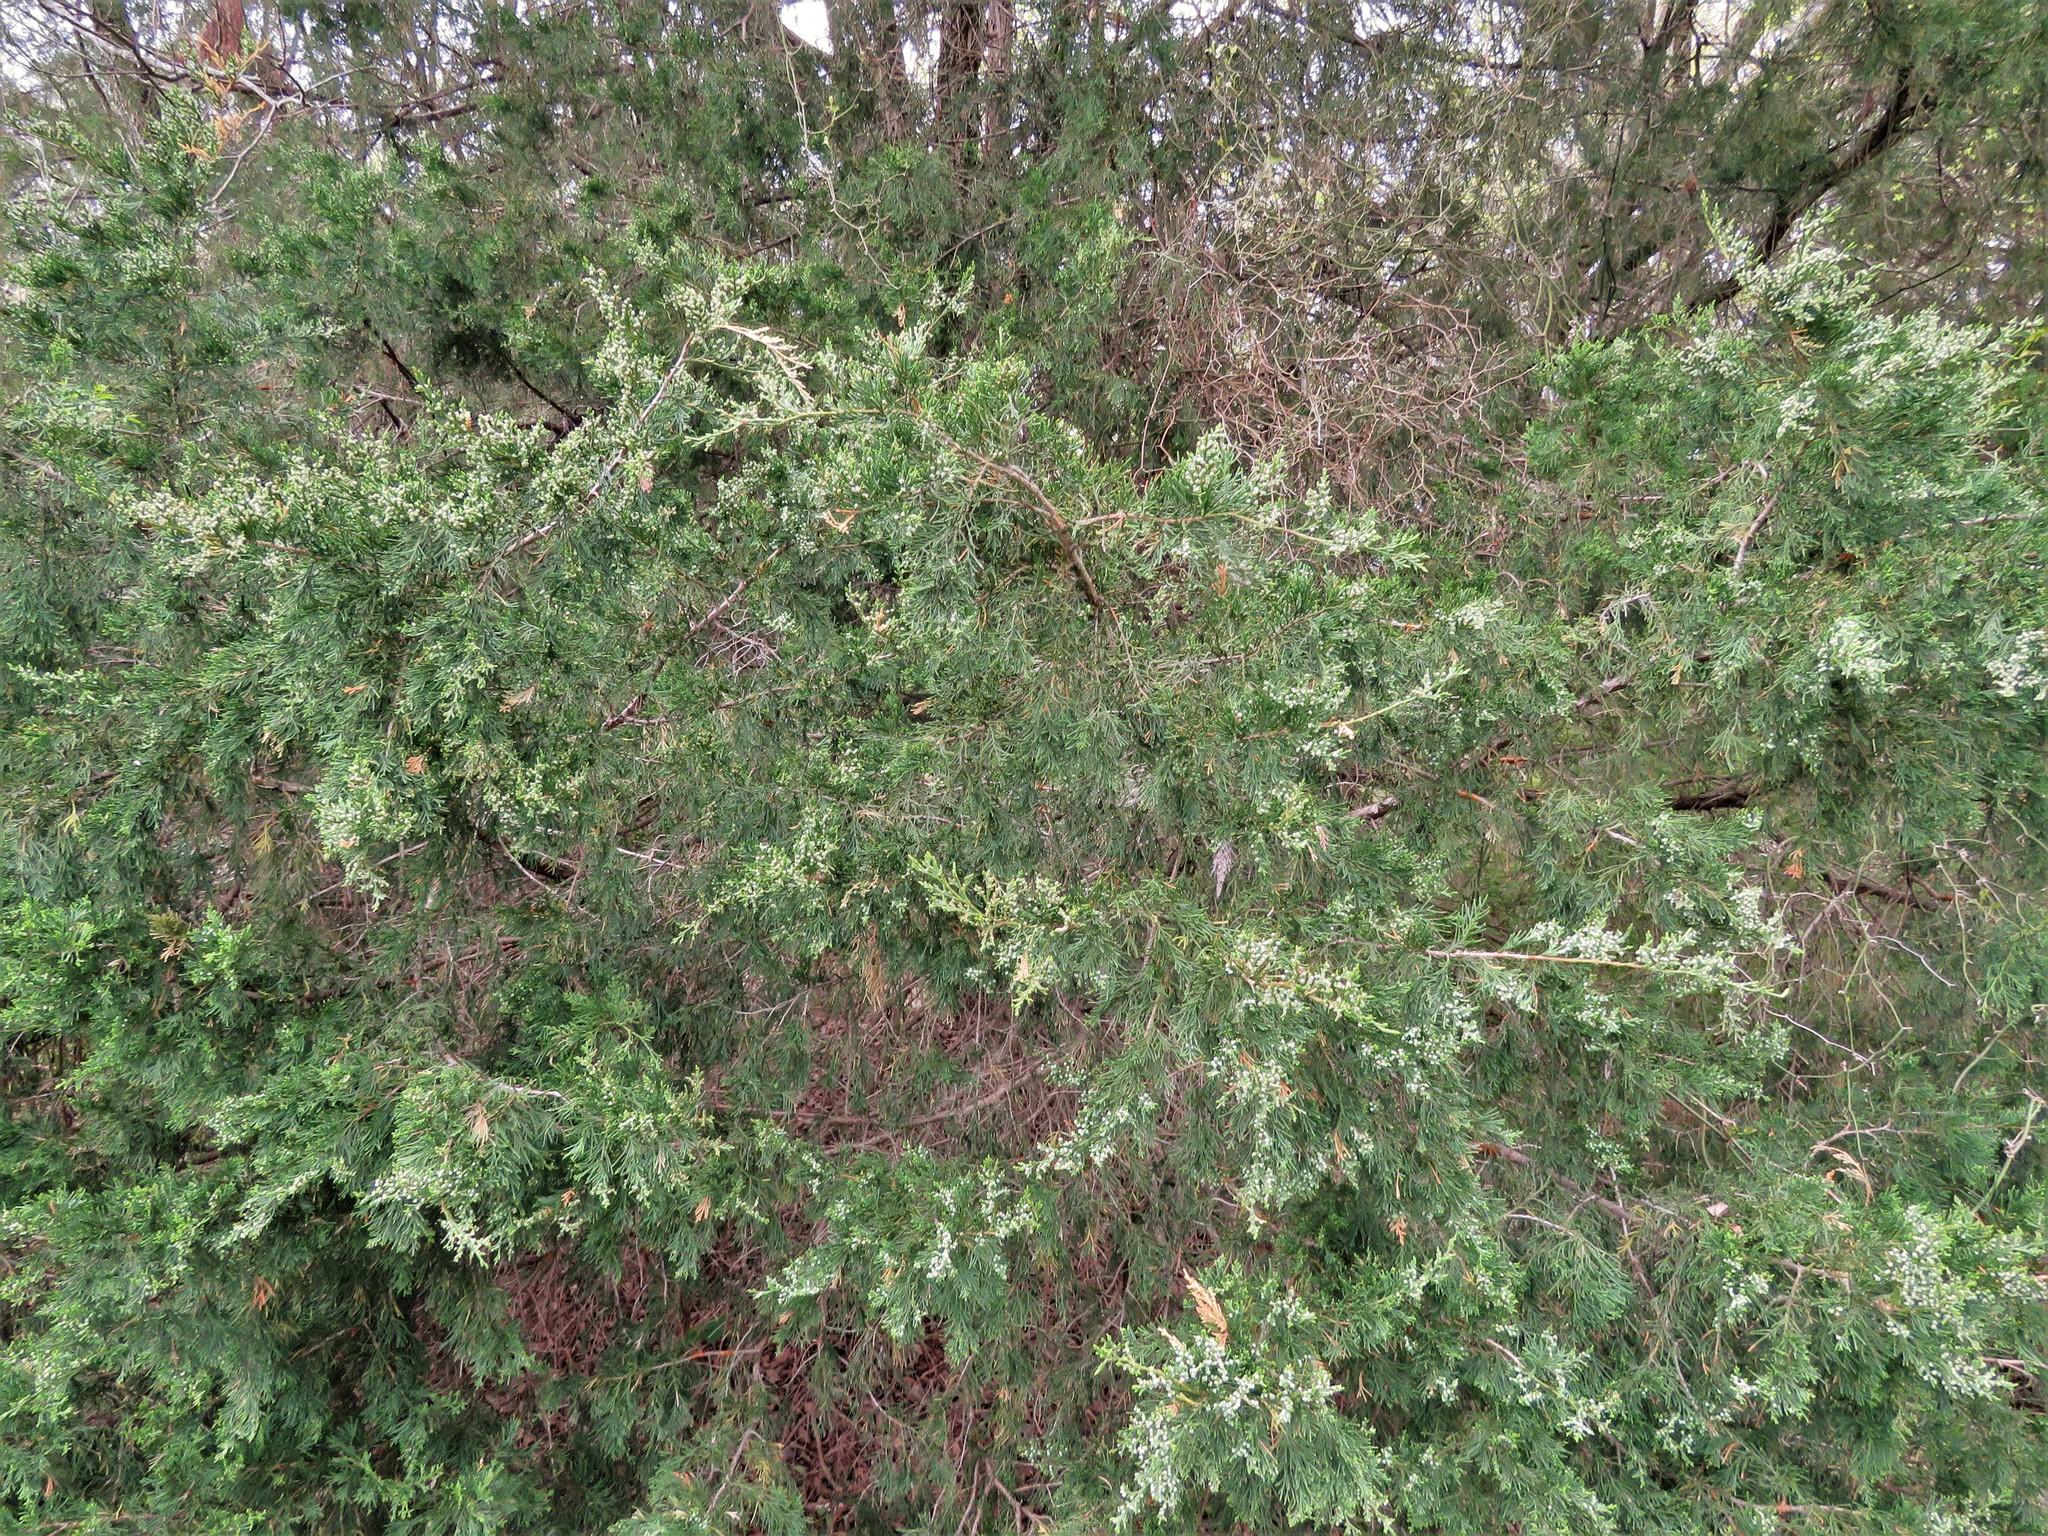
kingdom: Plantae
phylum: Tracheophyta
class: Pinopsida
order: Pinales
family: Cupressaceae
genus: Juniperus
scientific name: Juniperus virginiana
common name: Red juniper
